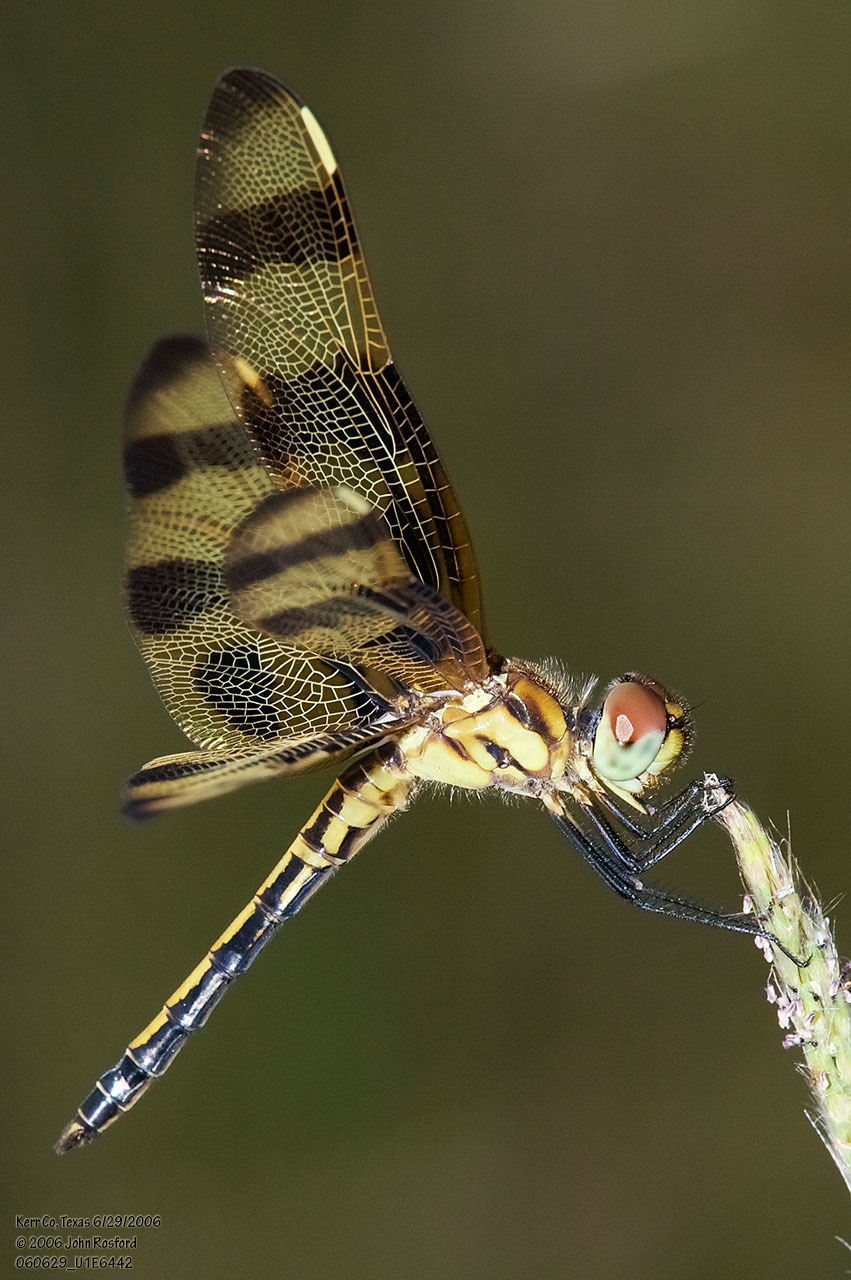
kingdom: Animalia
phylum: Arthropoda
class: Insecta
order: Odonata
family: Libellulidae
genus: Celithemis
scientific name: Celithemis eponina
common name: Halloween pennant
